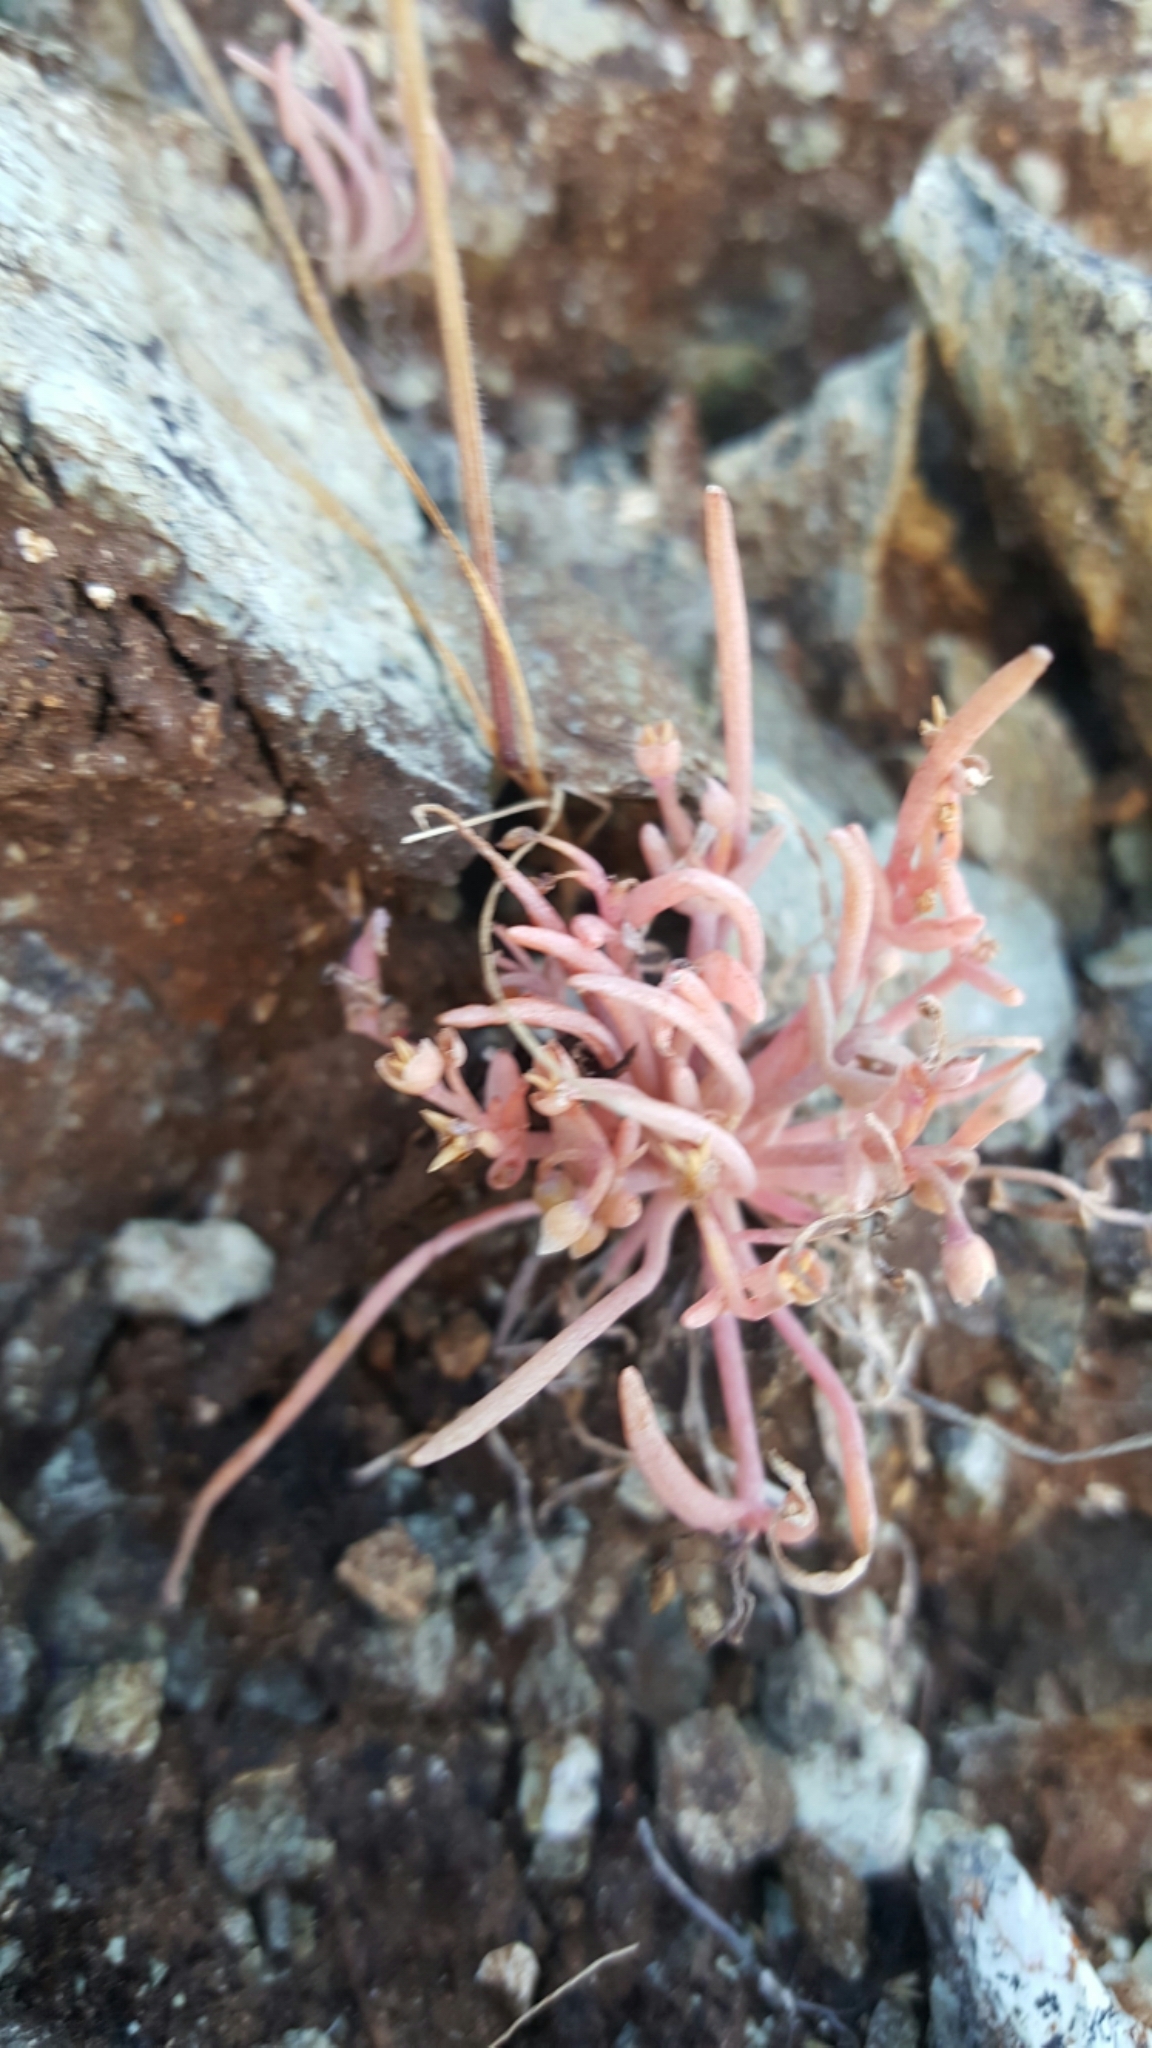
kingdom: Plantae
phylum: Tracheophyta
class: Magnoliopsida
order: Caryophyllales
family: Montiaceae
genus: Claytonia
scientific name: Claytonia exigua
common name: Pale spring beauty
